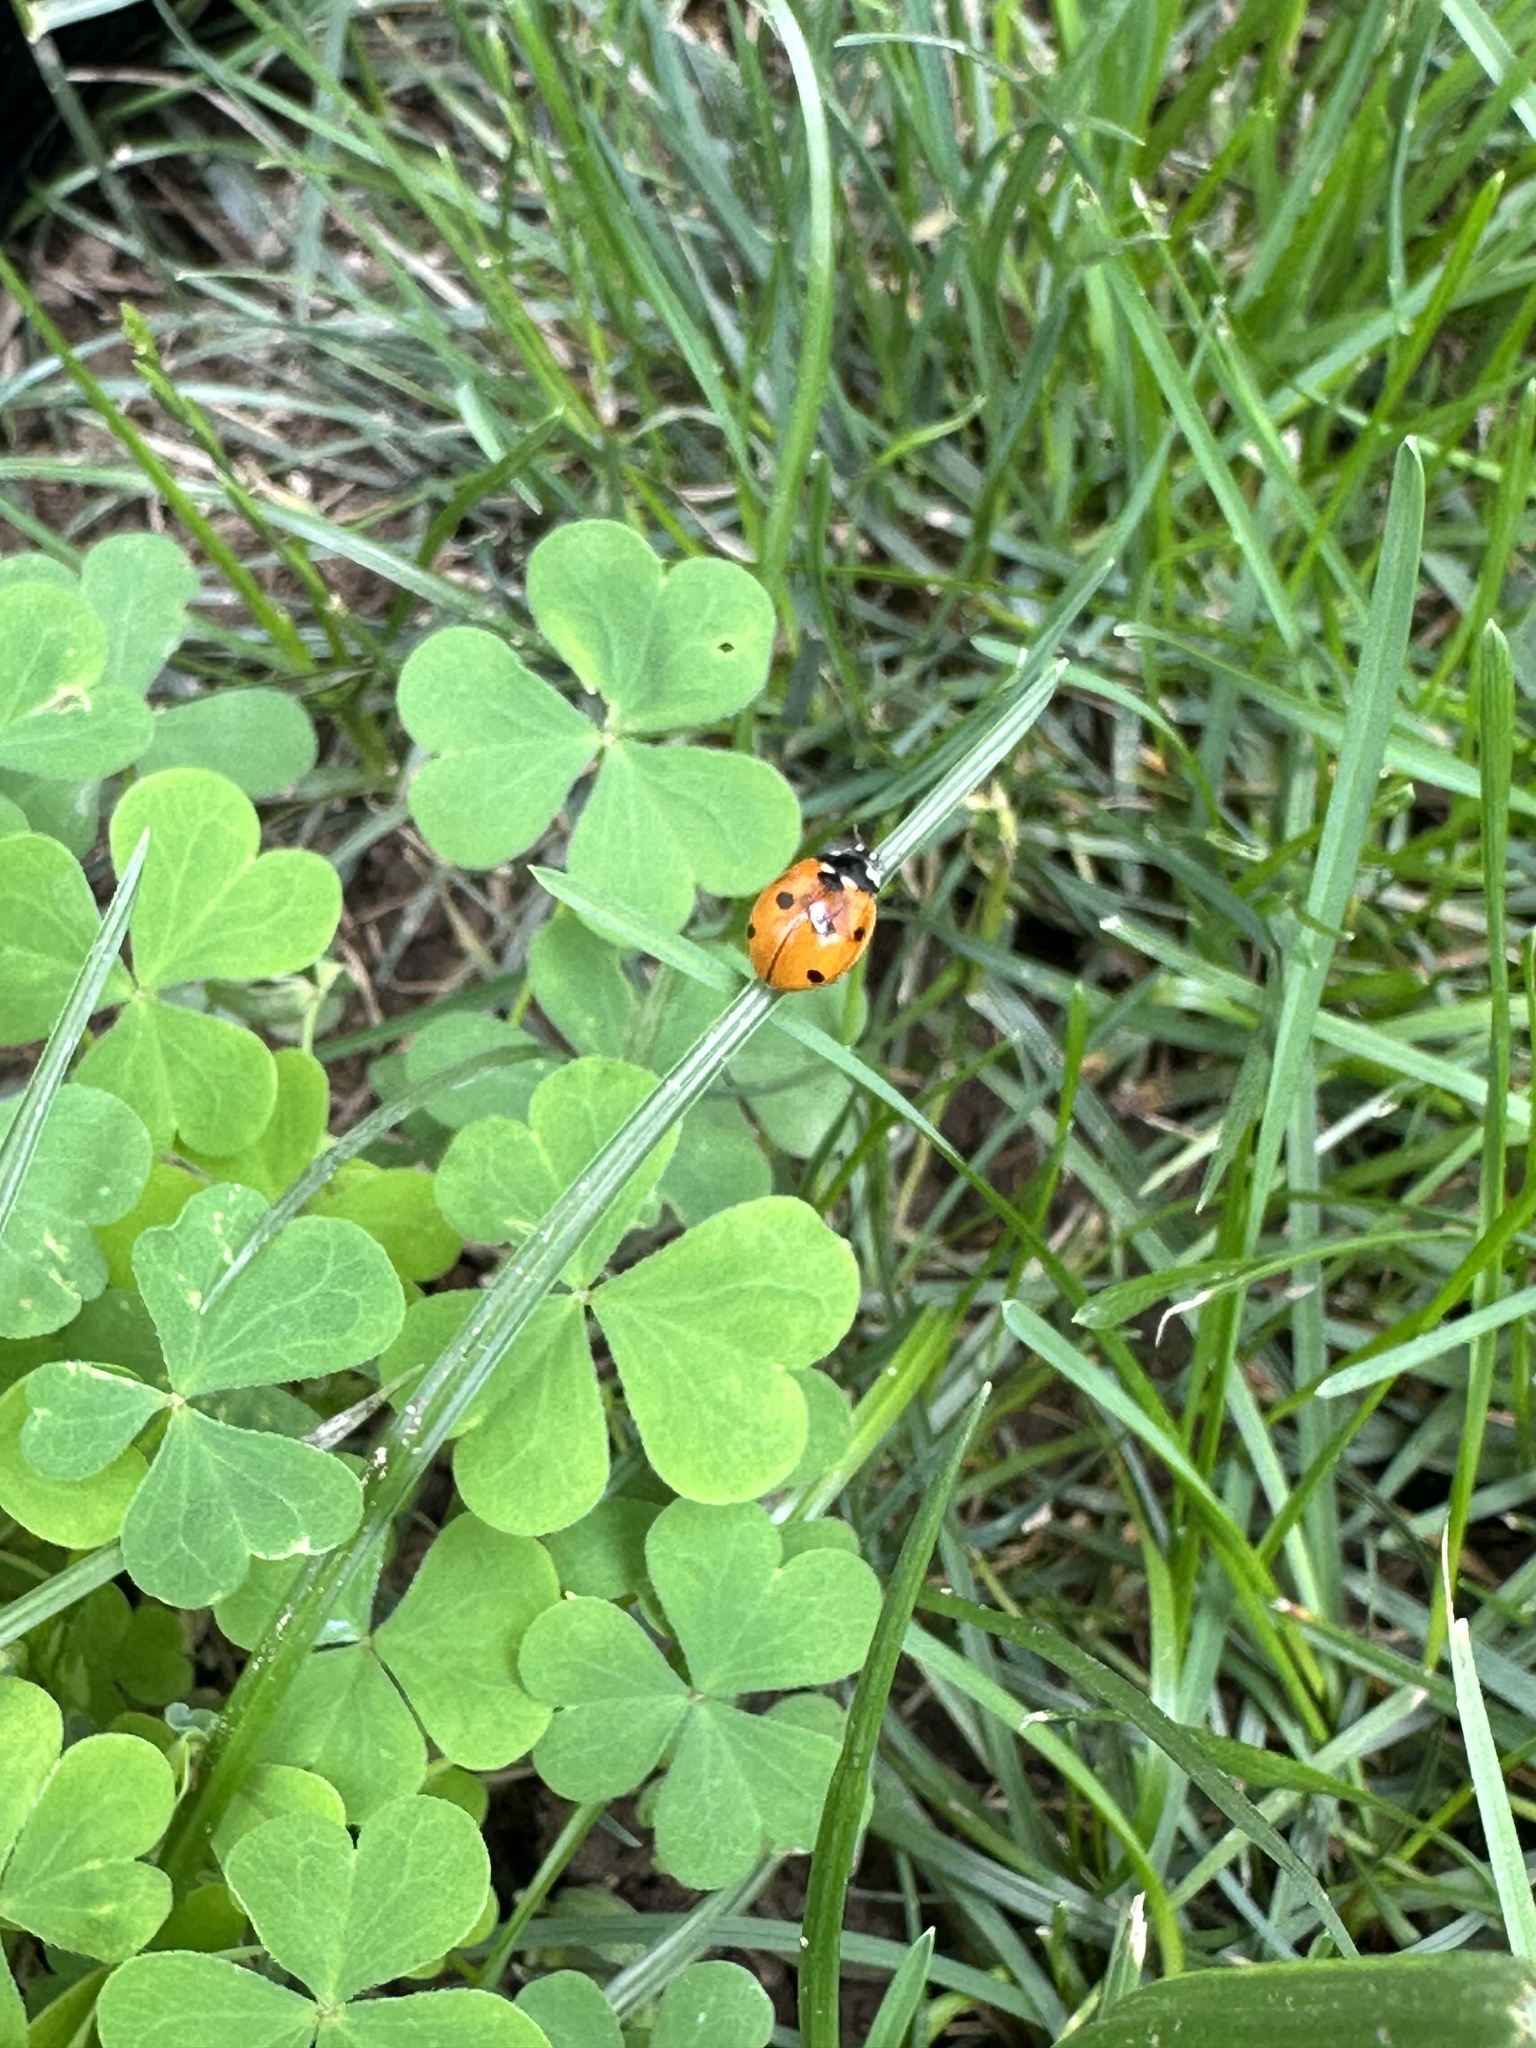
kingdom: Animalia
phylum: Arthropoda
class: Insecta
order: Coleoptera
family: Coccinellidae
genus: Coccinella
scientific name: Coccinella septempunctata
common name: Sevenspotted lady beetle
